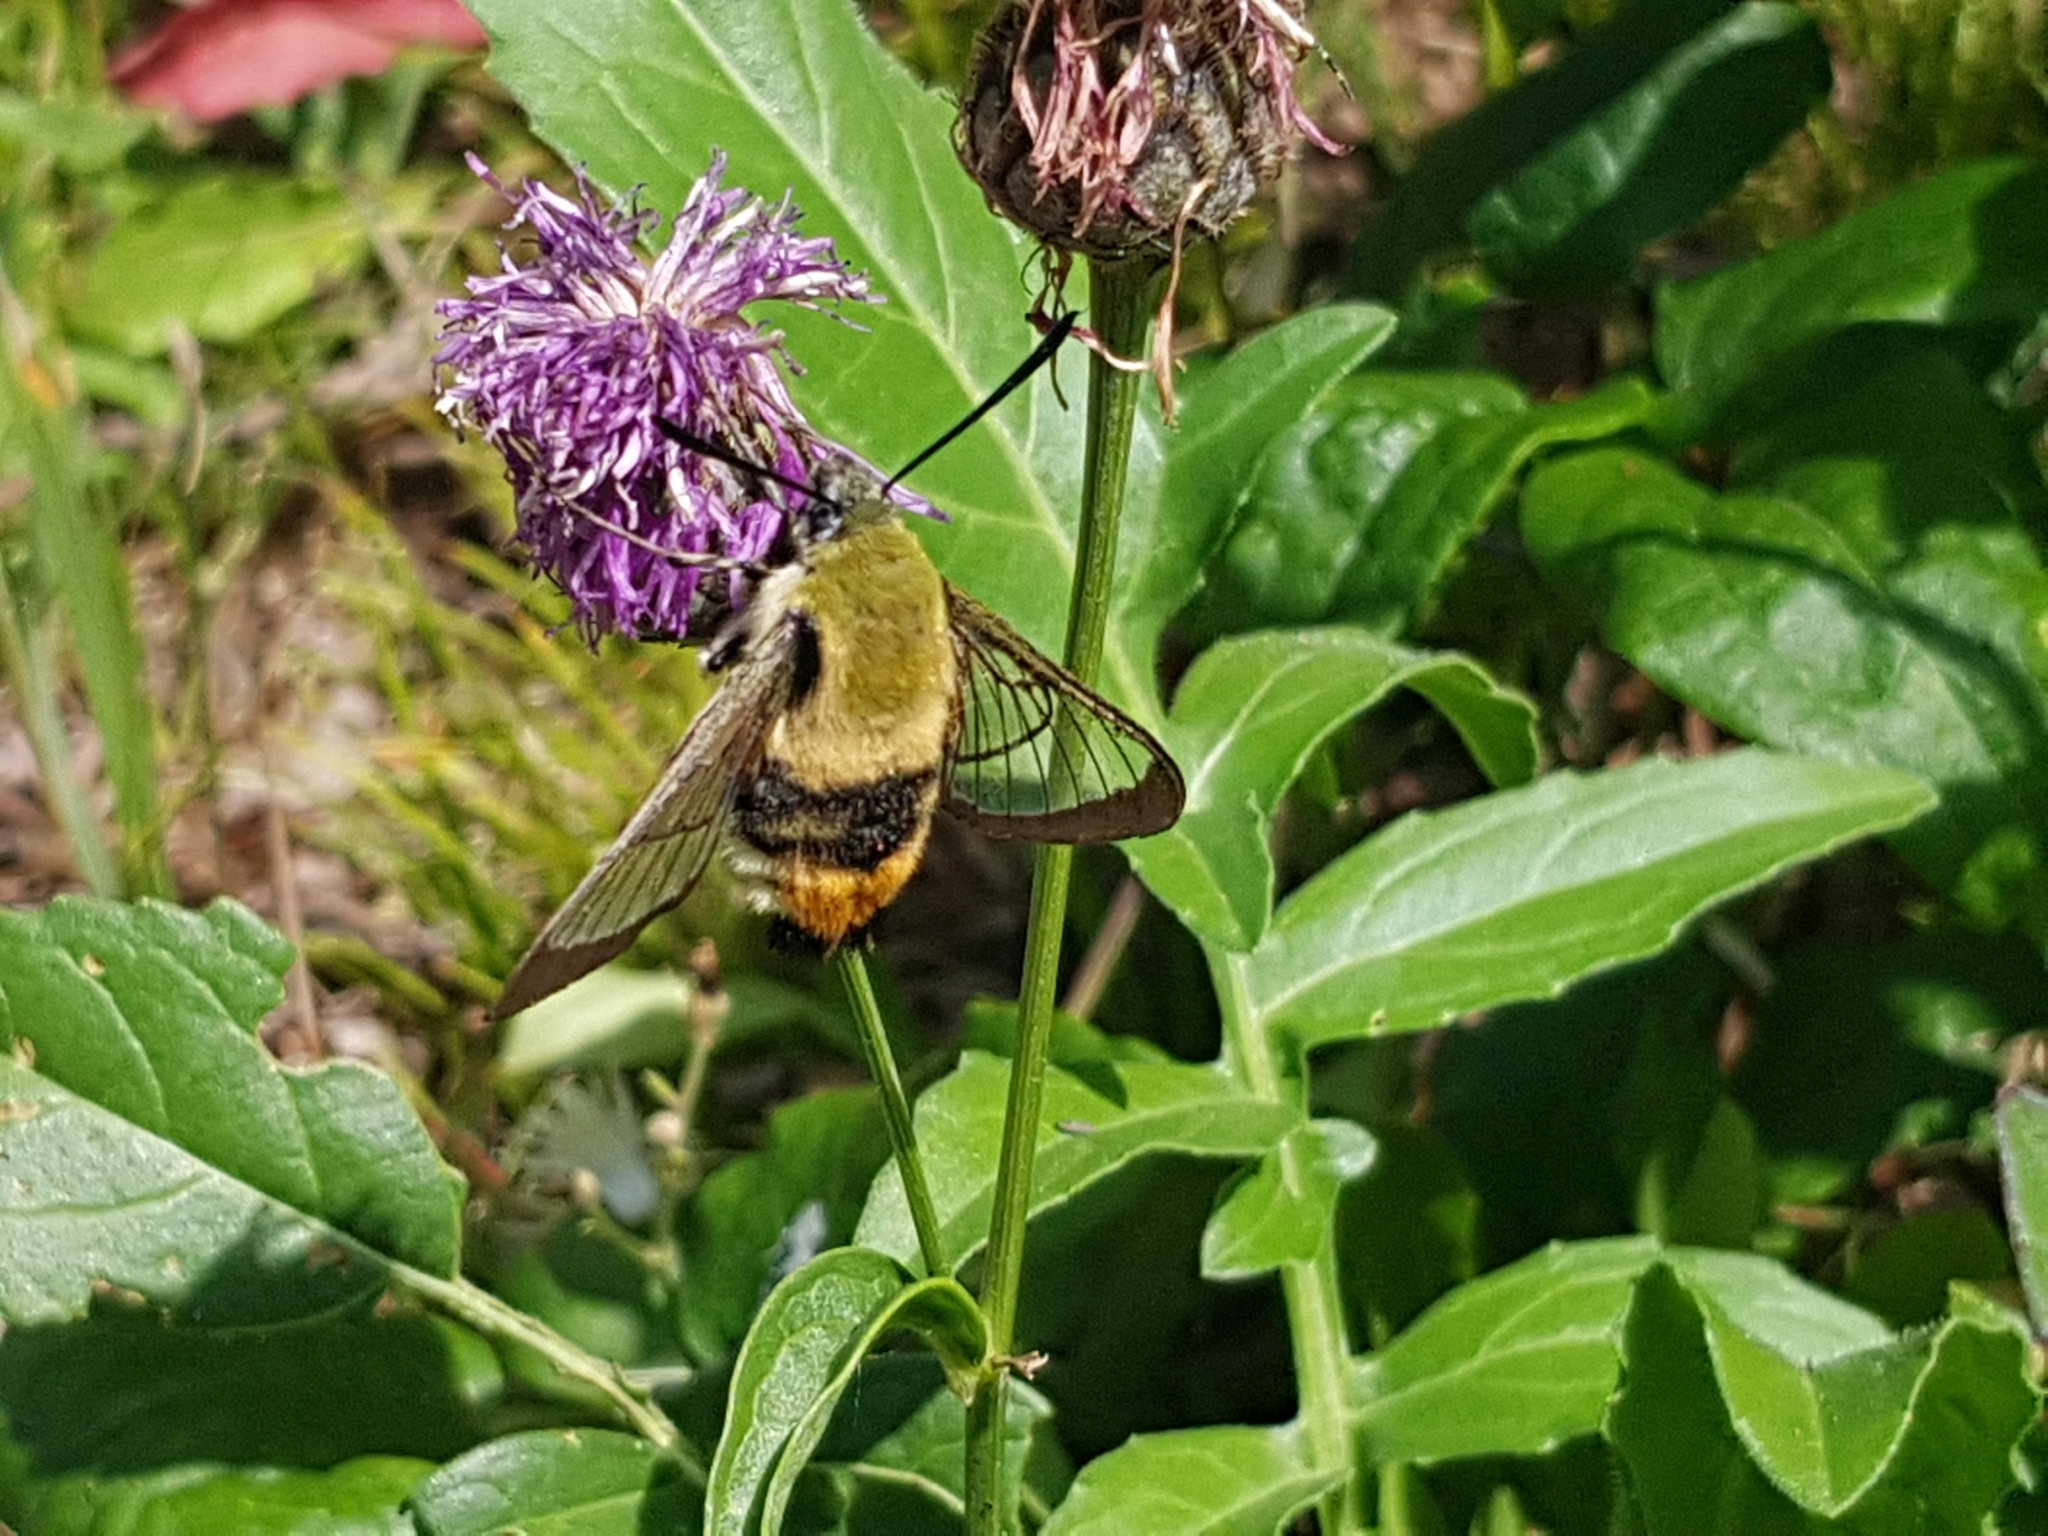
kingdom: Animalia
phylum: Arthropoda
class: Insecta
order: Lepidoptera
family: Sphingidae
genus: Hemaris
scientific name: Hemaris tityus
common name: Narrow-bordered bee hawk-moth
